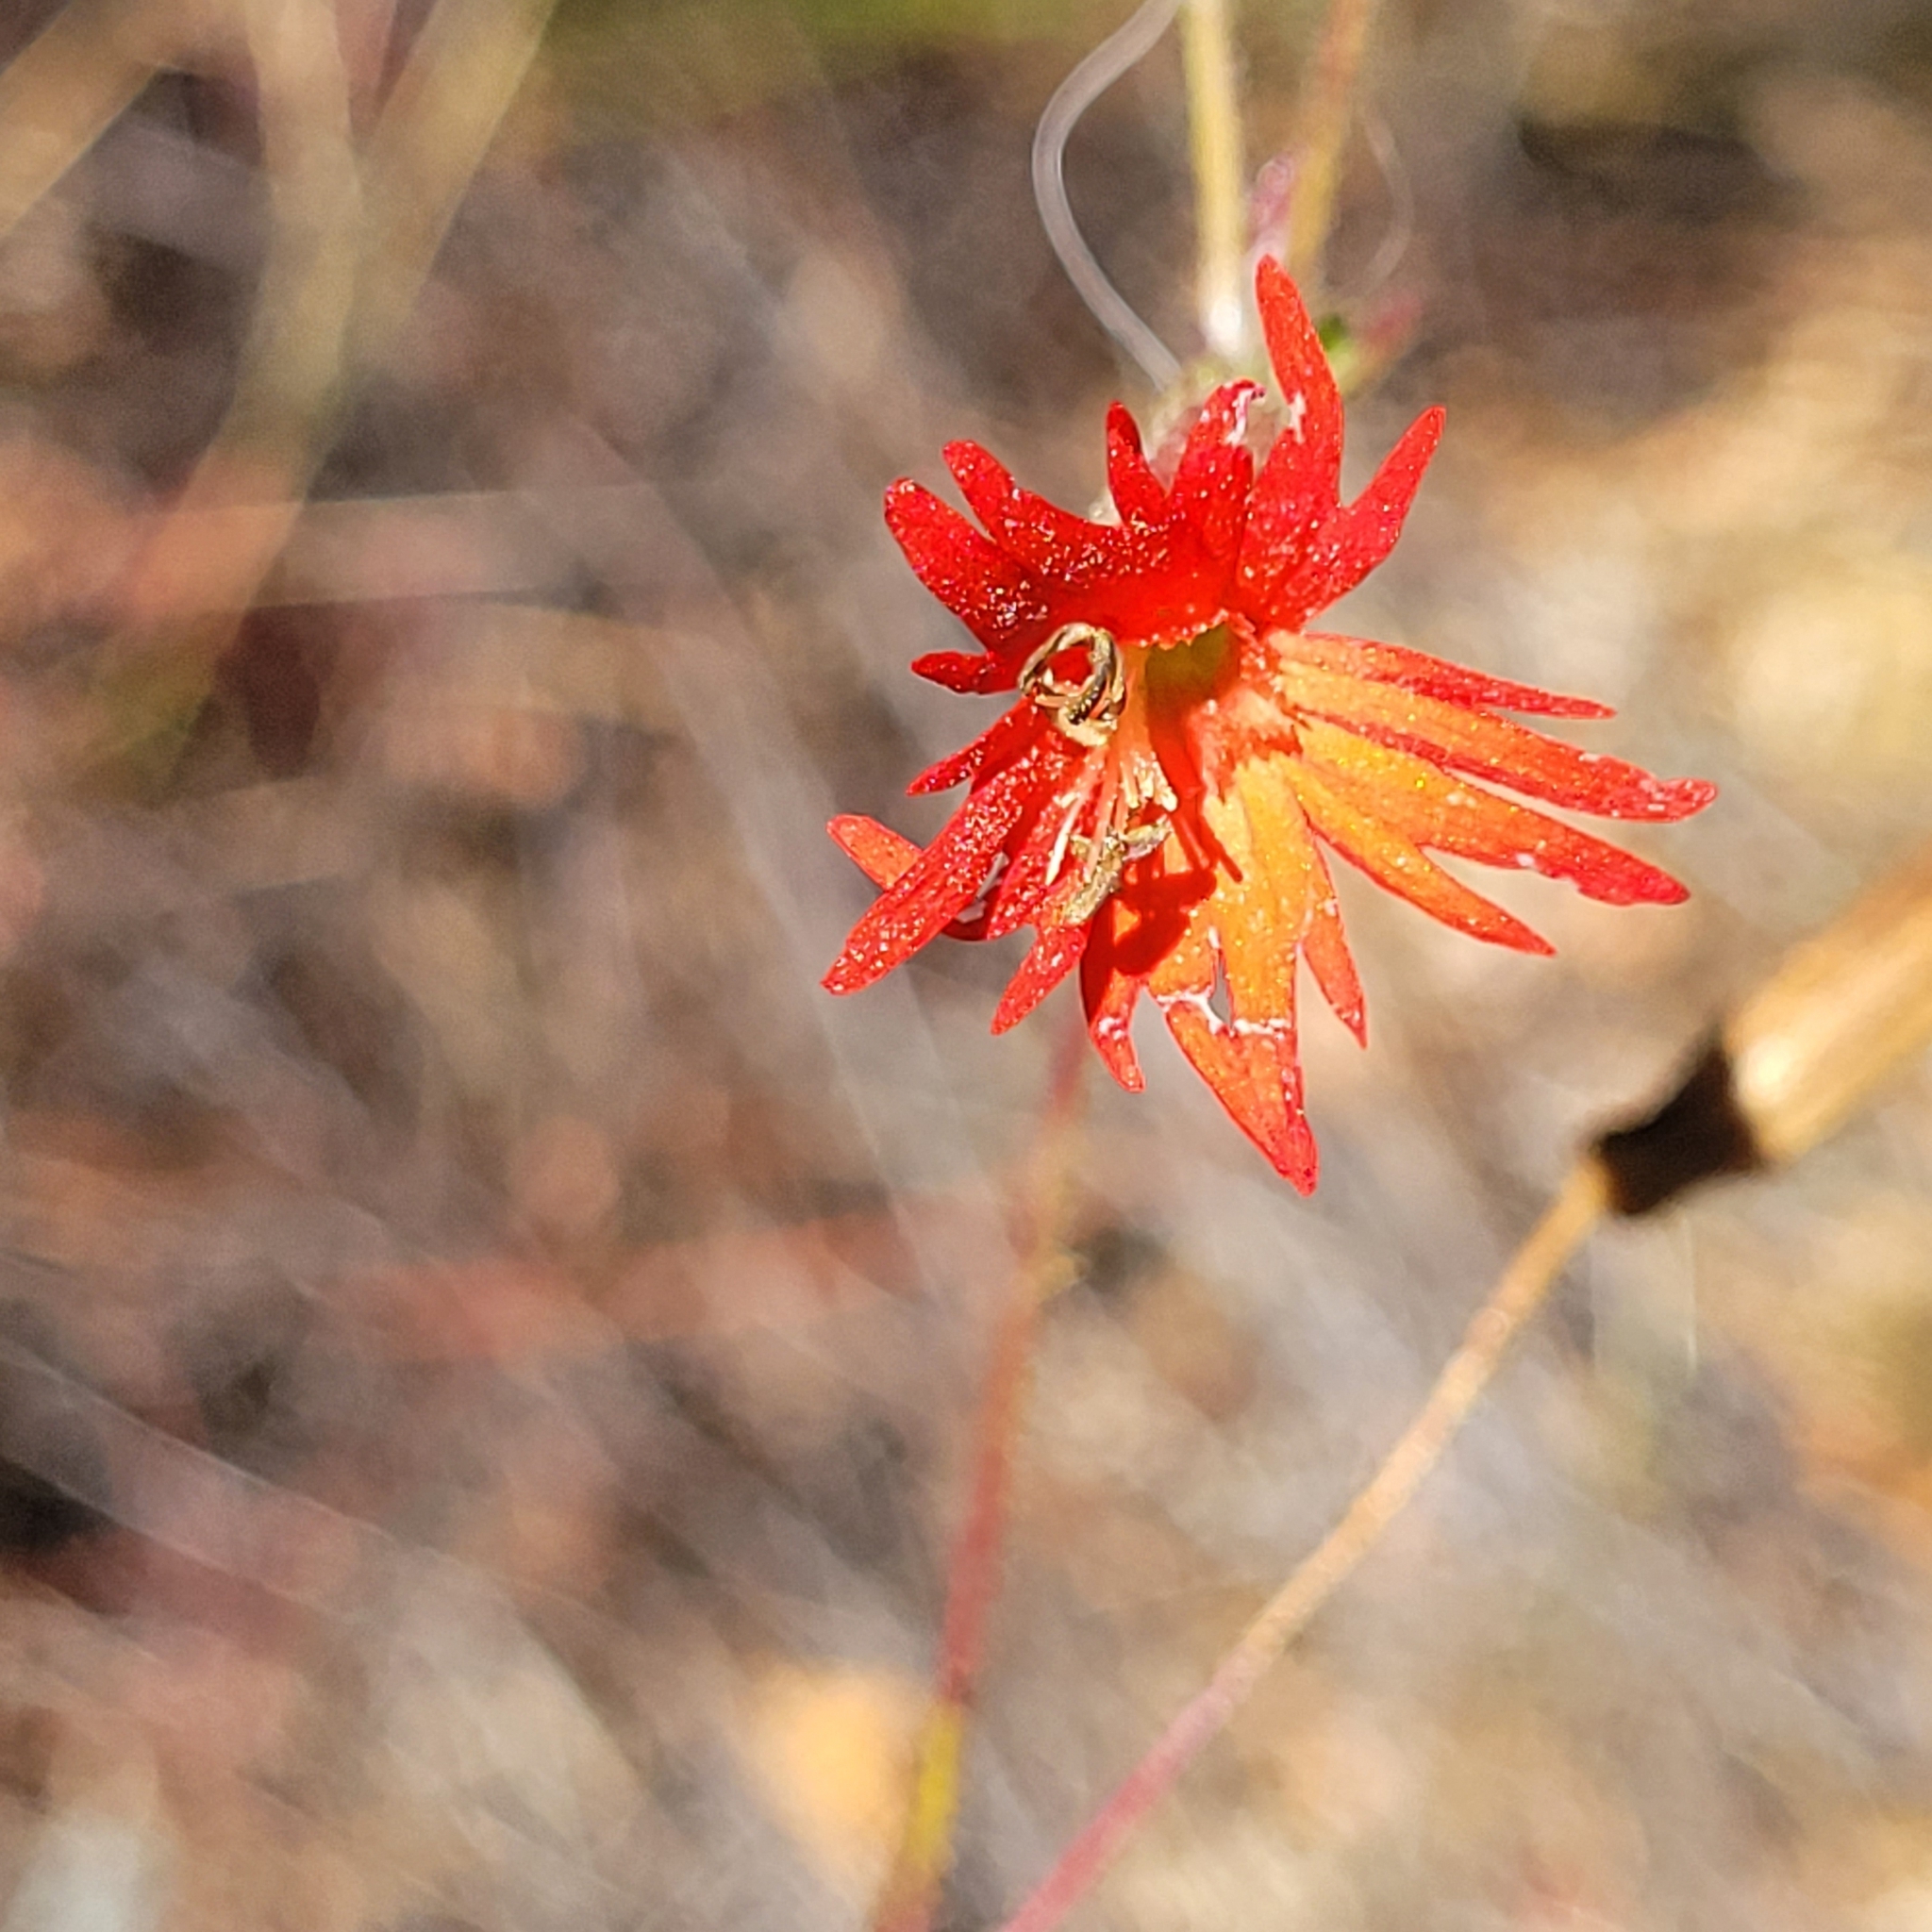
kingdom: Plantae
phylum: Tracheophyta
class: Magnoliopsida
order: Caryophyllales
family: Caryophyllaceae
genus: Silene
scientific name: Silene laciniata
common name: Indian-pink
